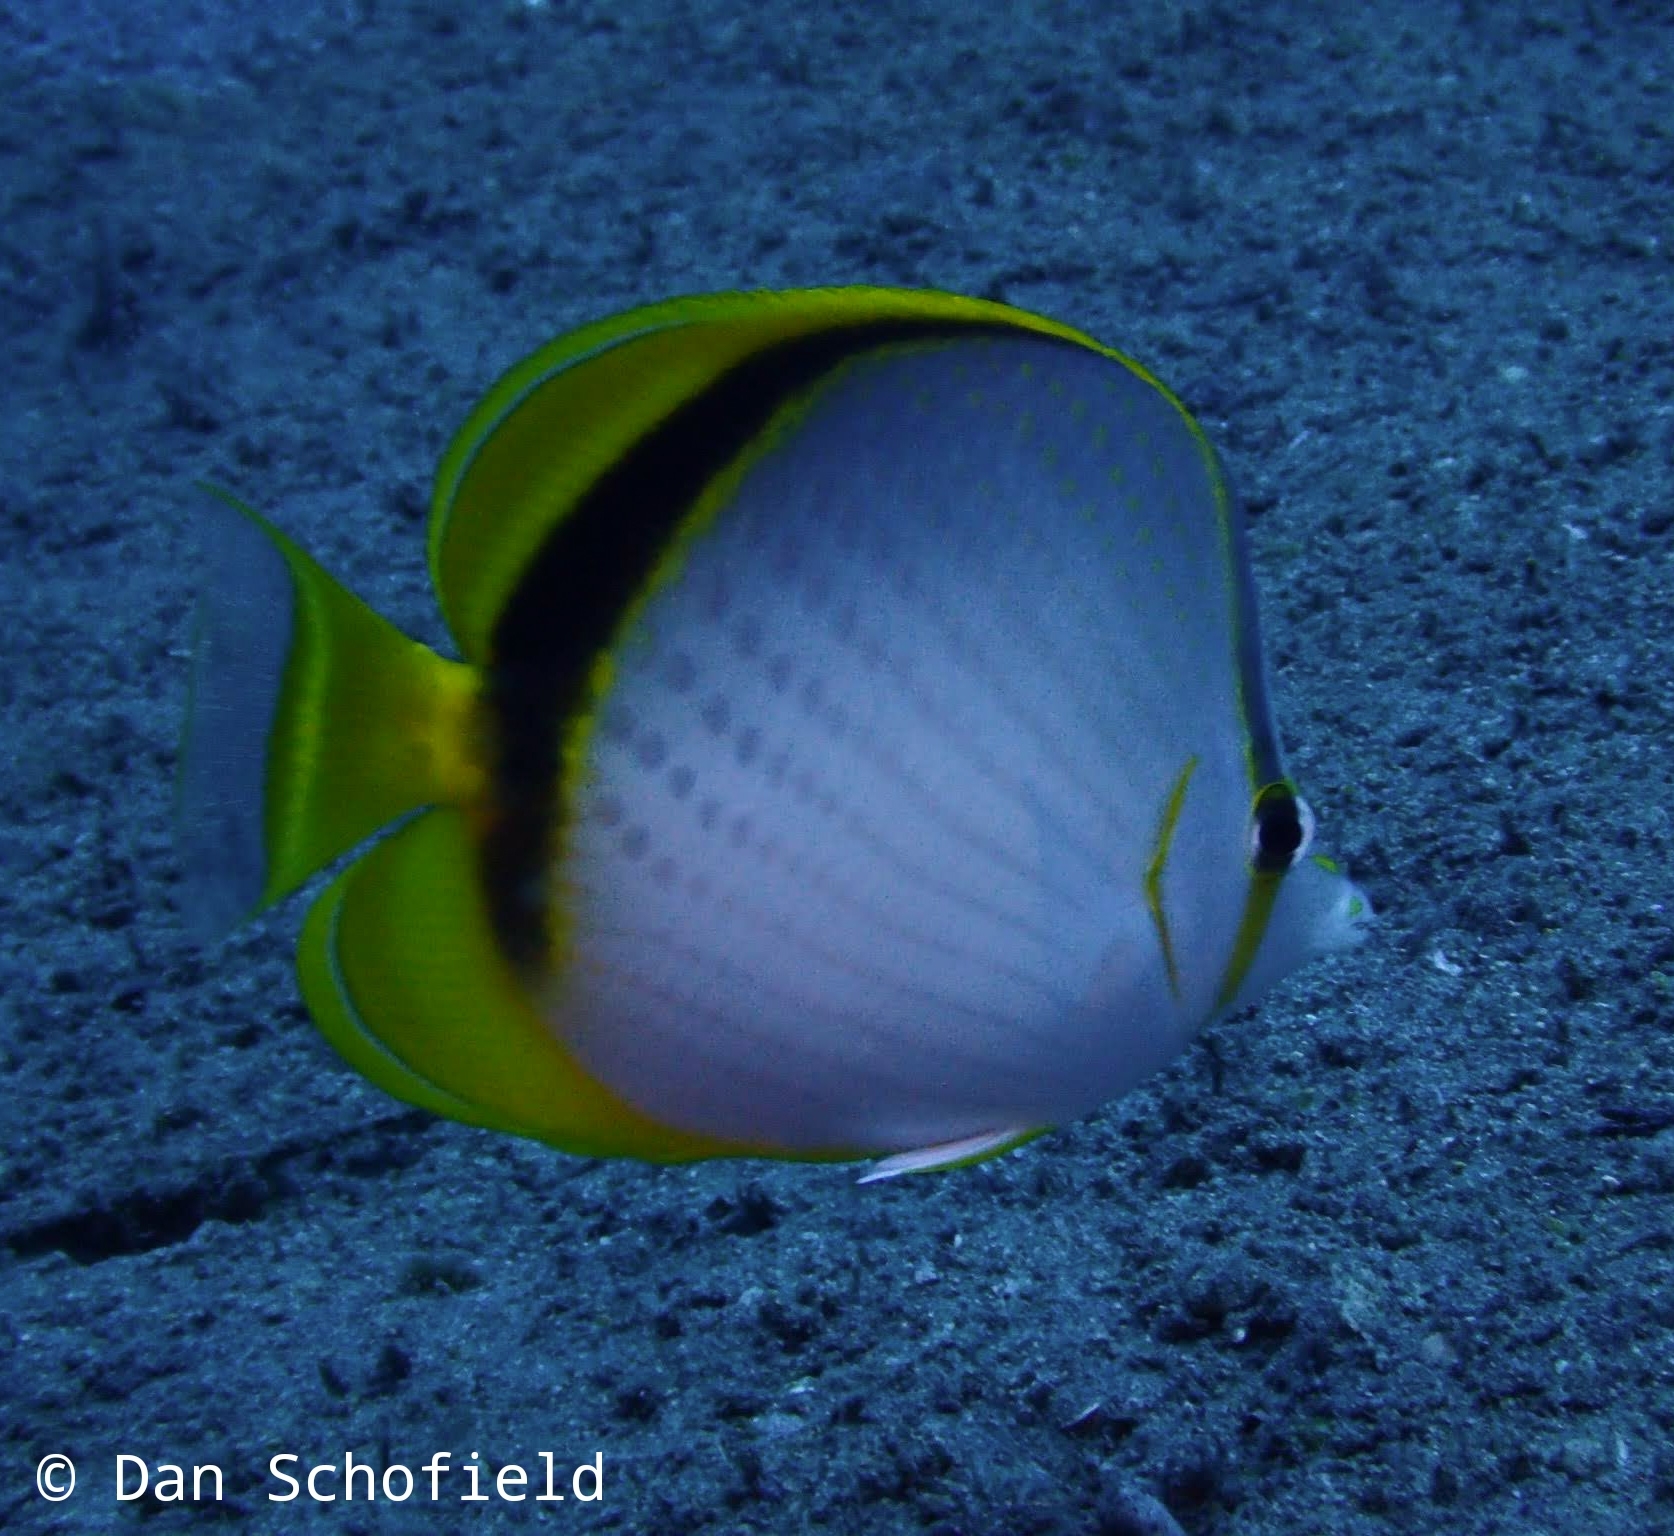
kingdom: Animalia
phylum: Chordata
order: Perciformes
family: Chaetodontidae
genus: Chaetodon
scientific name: Chaetodon selene
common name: Yellow-dotted butterflyfish
